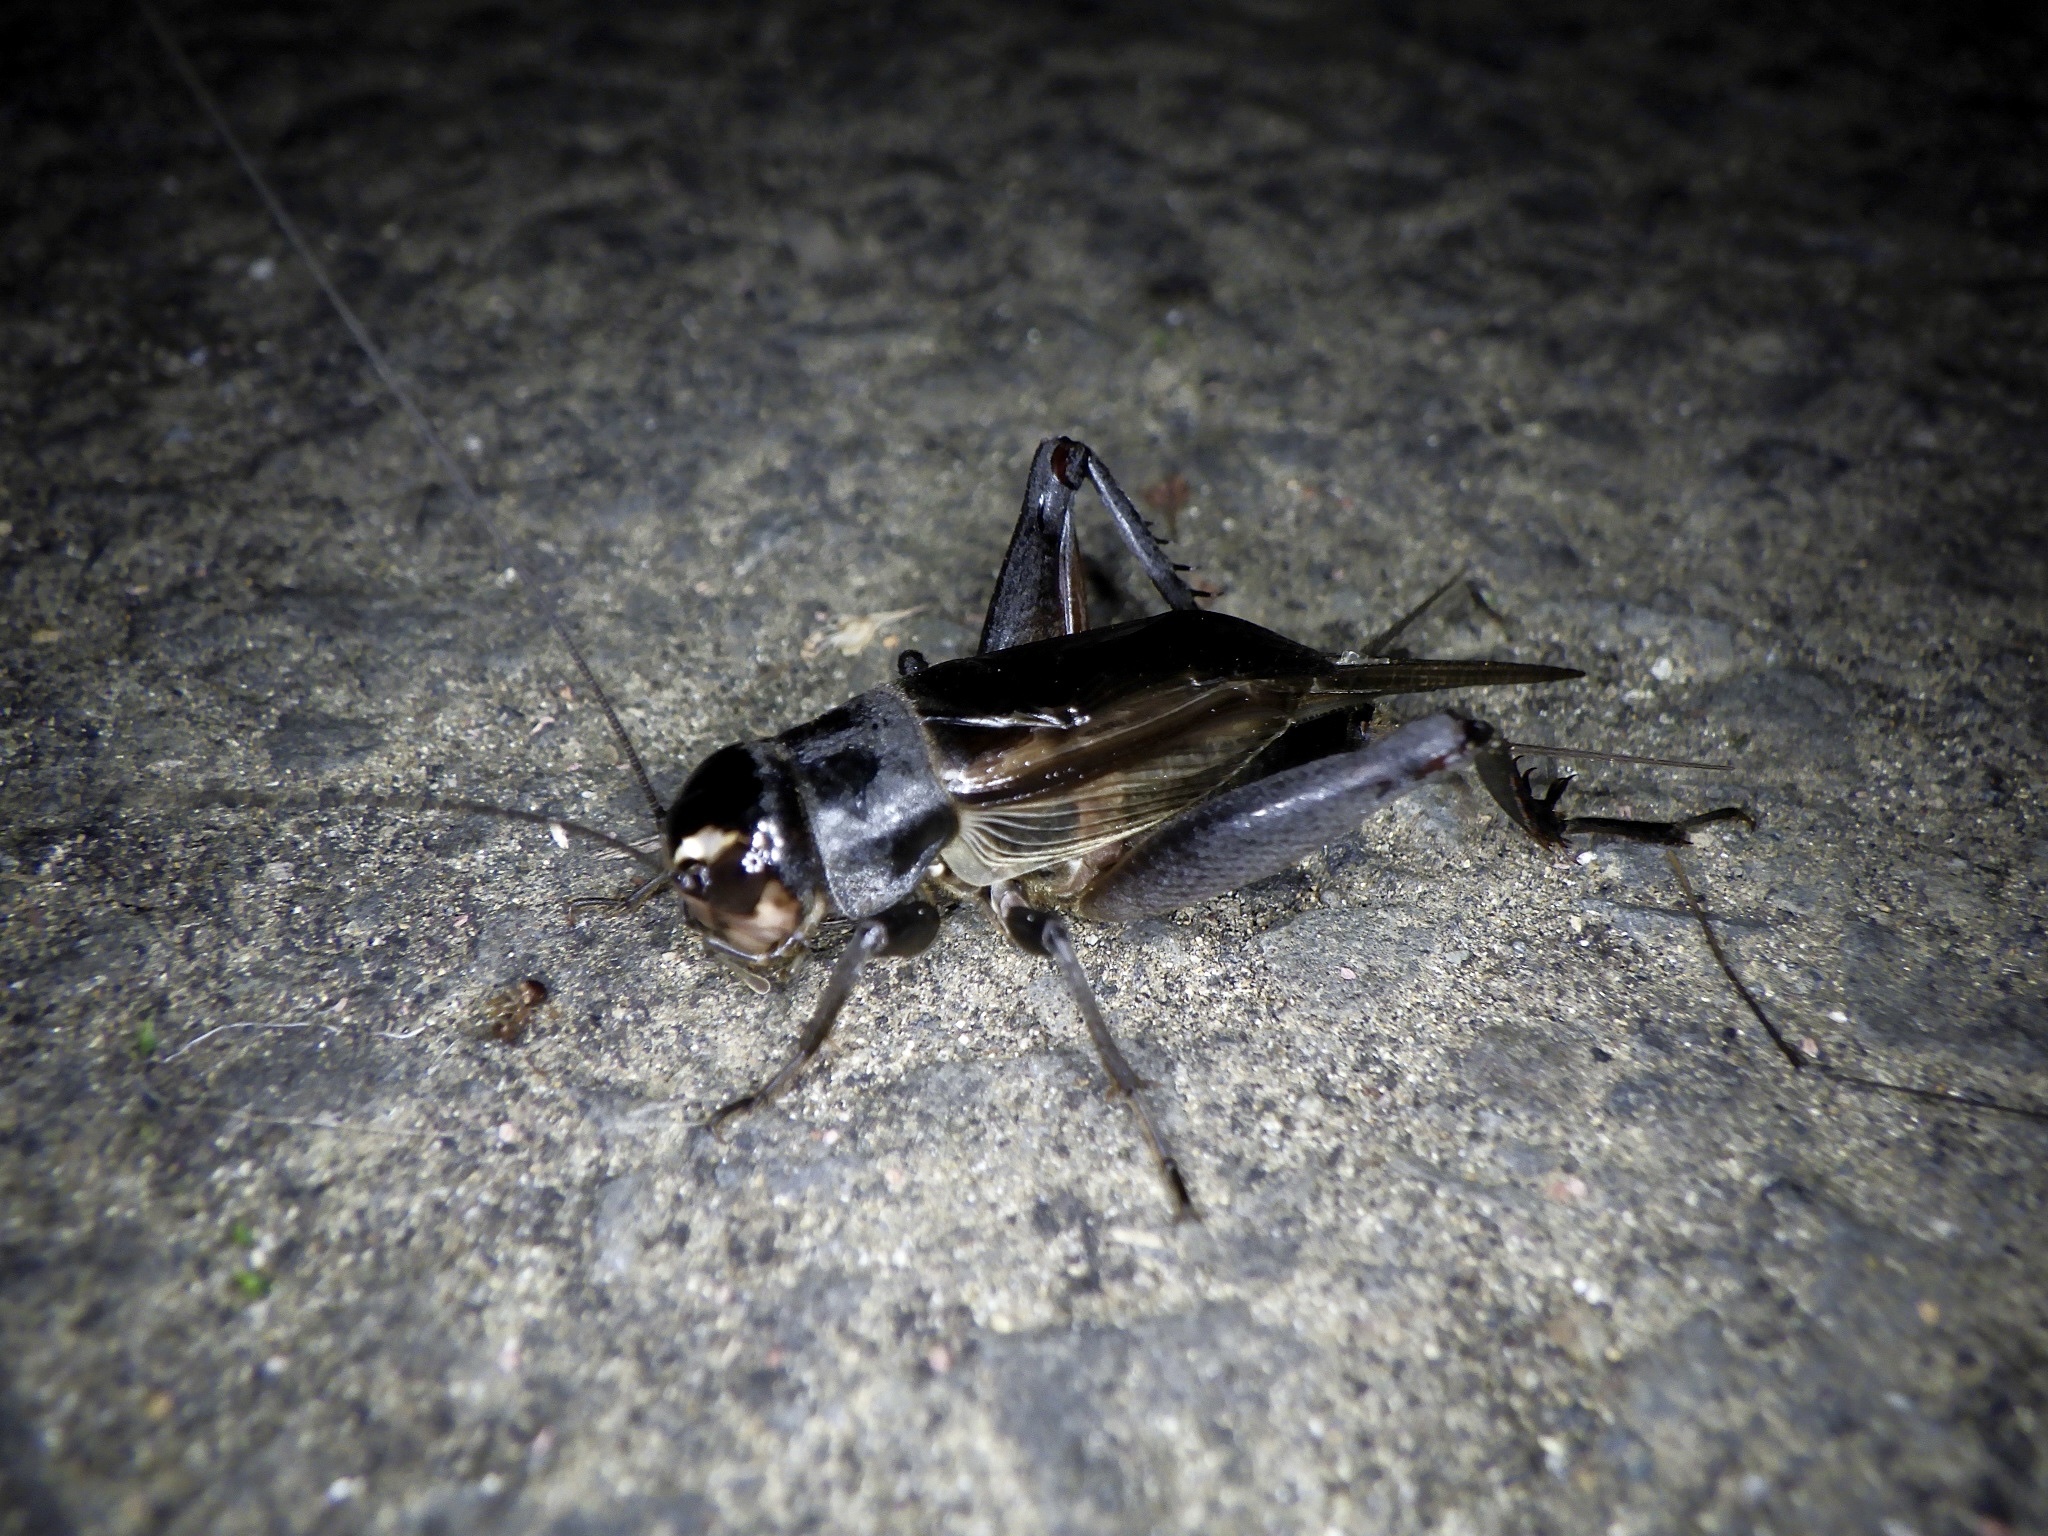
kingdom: Animalia
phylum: Arthropoda
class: Insecta
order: Orthoptera
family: Gryllidae
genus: Teleogryllus
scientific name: Teleogryllus emma
